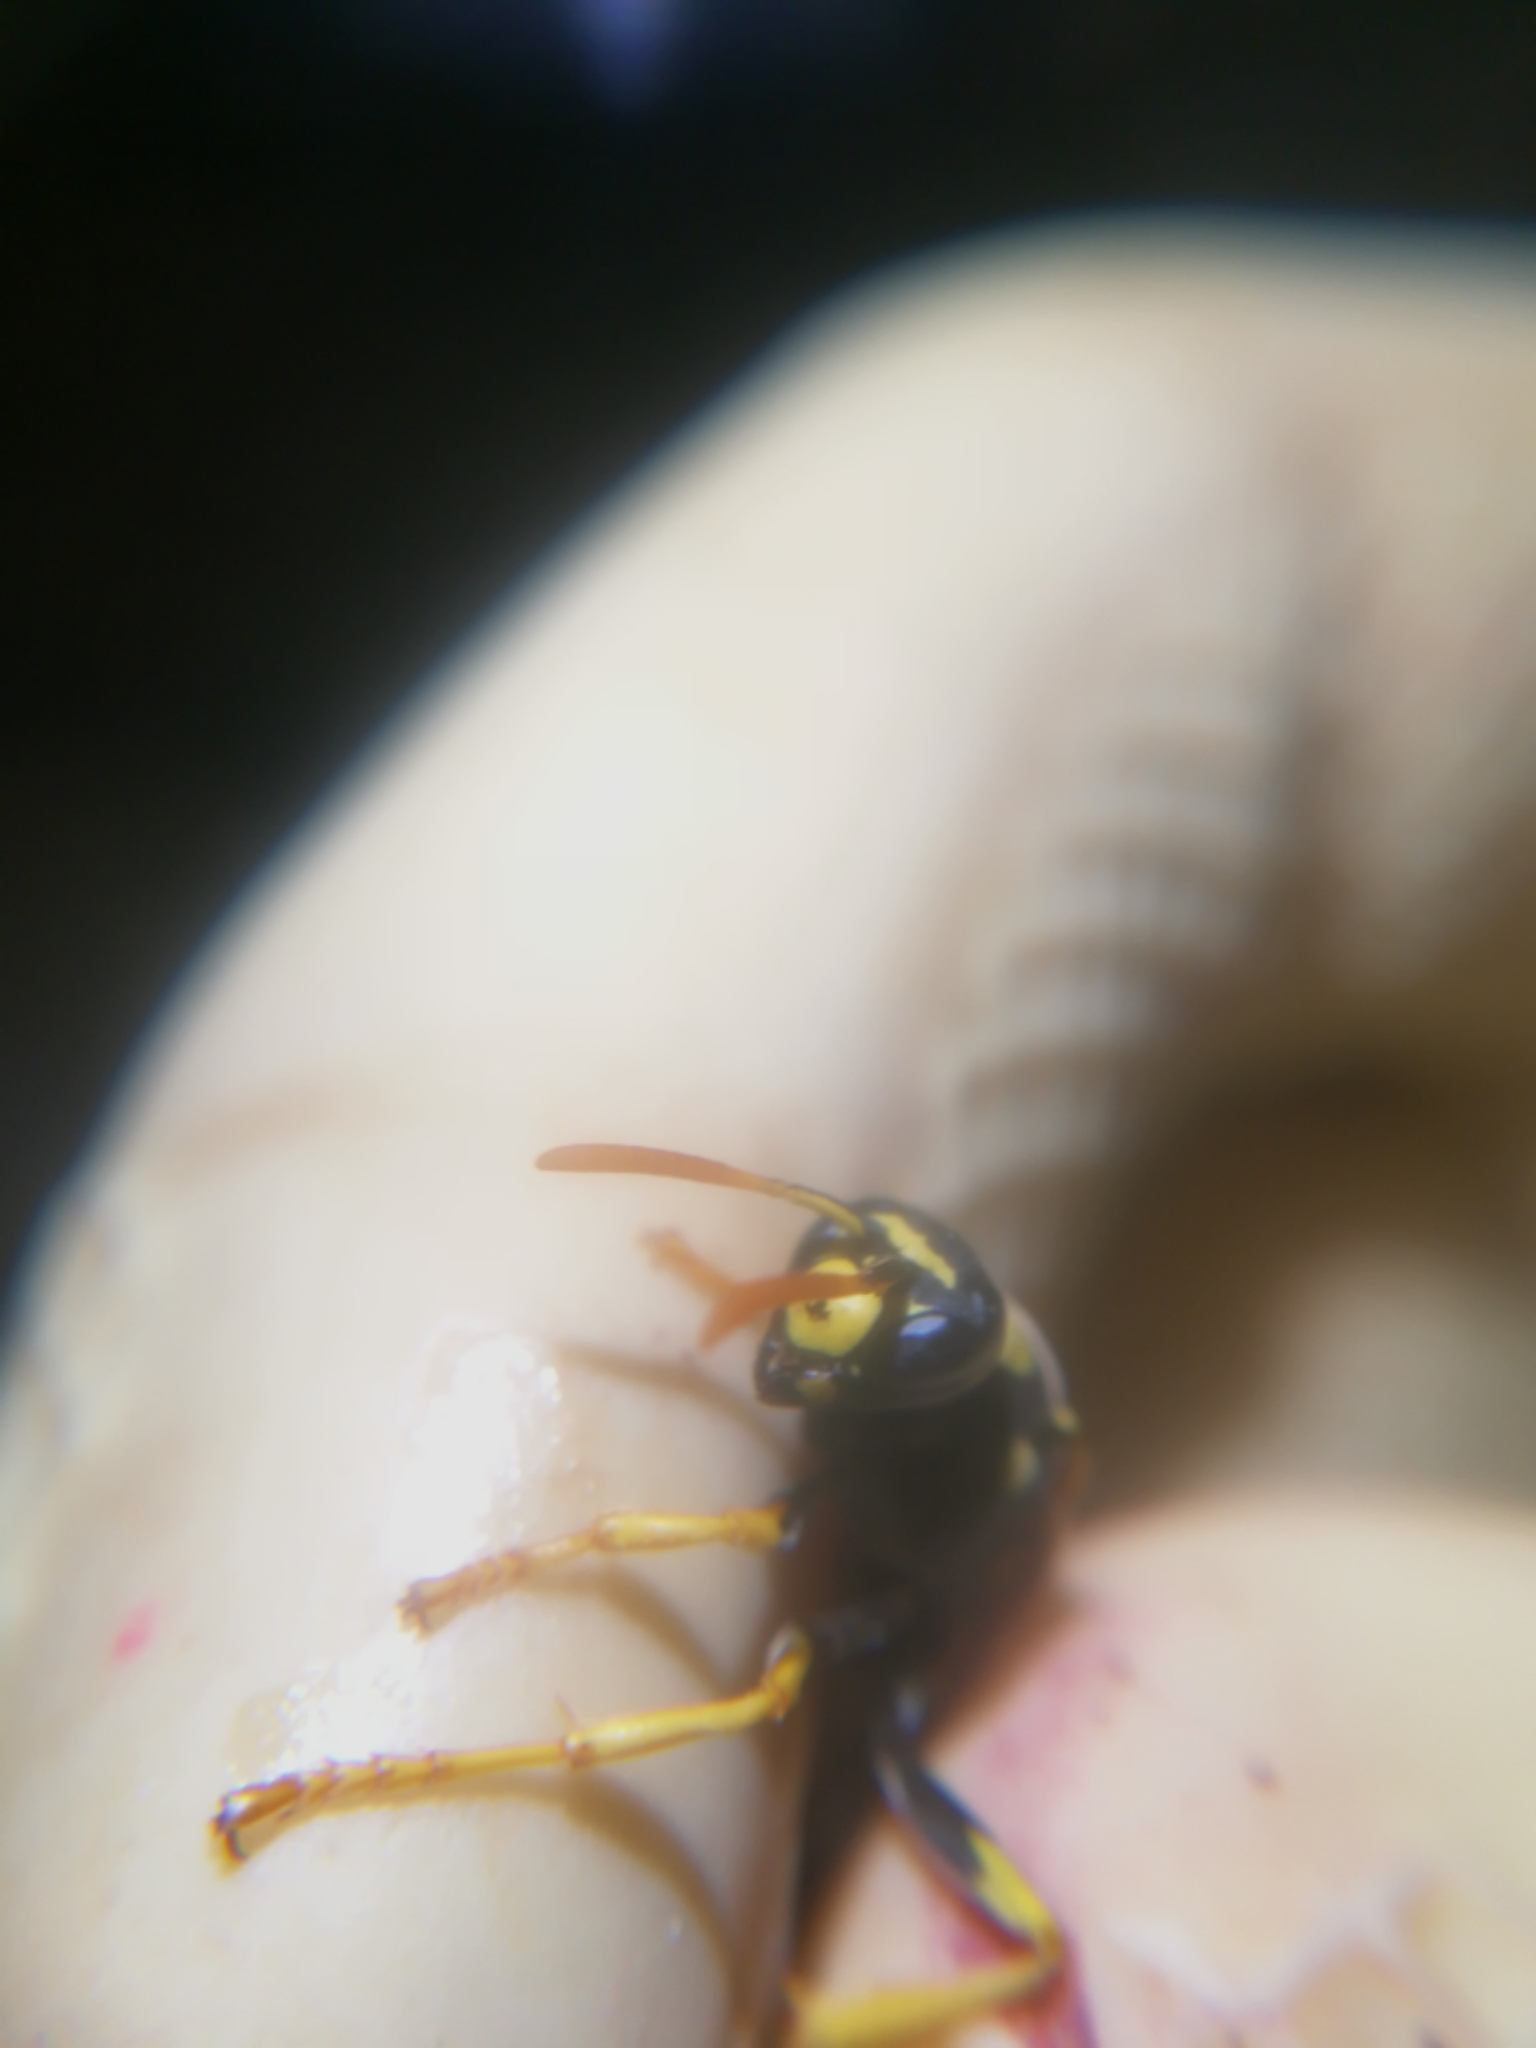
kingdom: Animalia
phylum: Arthropoda
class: Insecta
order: Hymenoptera
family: Eumenidae
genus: Polistes
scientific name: Polistes gallicus
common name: Paper wasp
